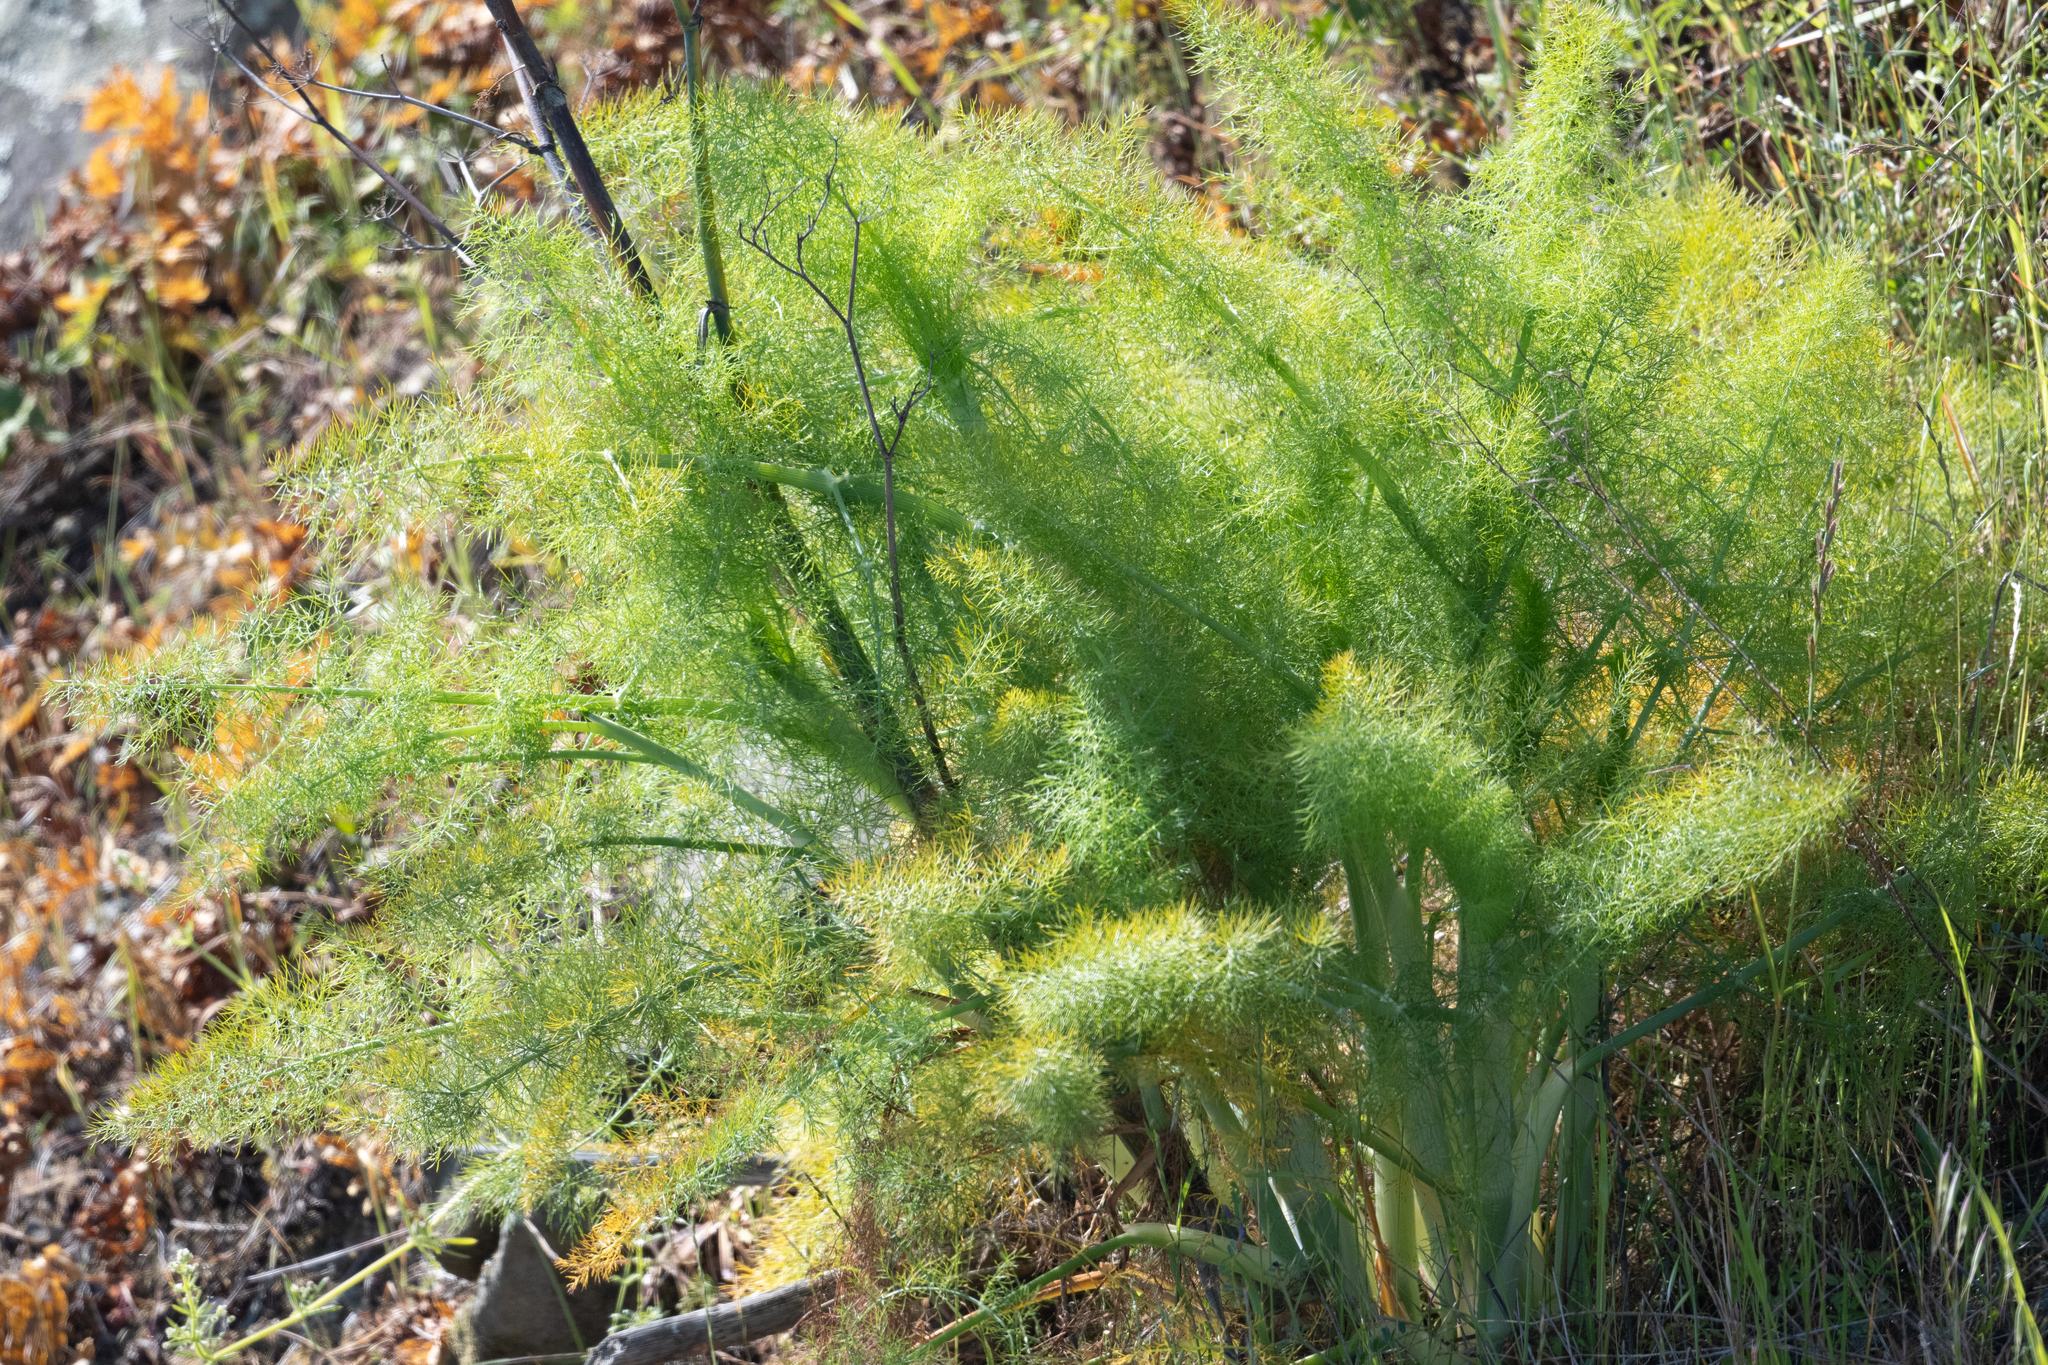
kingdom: Plantae
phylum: Tracheophyta
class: Magnoliopsida
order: Apiales
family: Apiaceae
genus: Foeniculum
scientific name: Foeniculum vulgare
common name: Fennel
